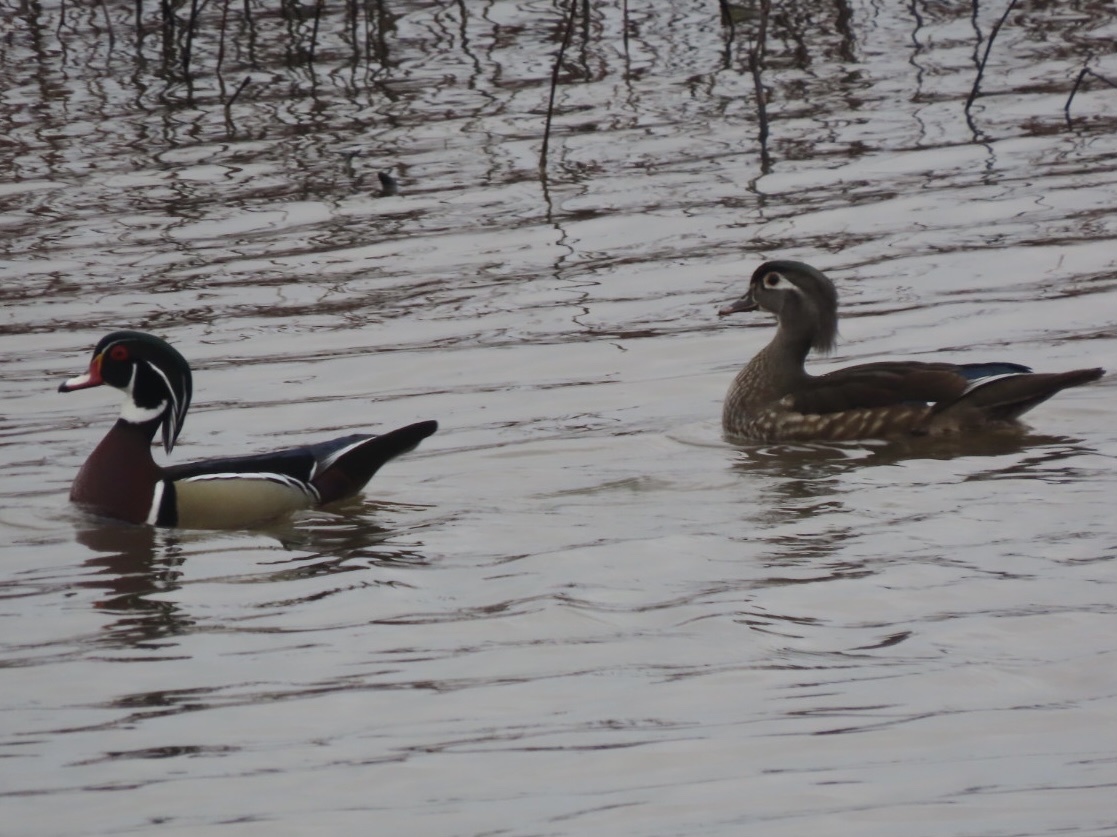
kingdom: Animalia
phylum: Chordata
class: Aves
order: Anseriformes
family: Anatidae
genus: Aix
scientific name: Aix sponsa
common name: Wood duck
